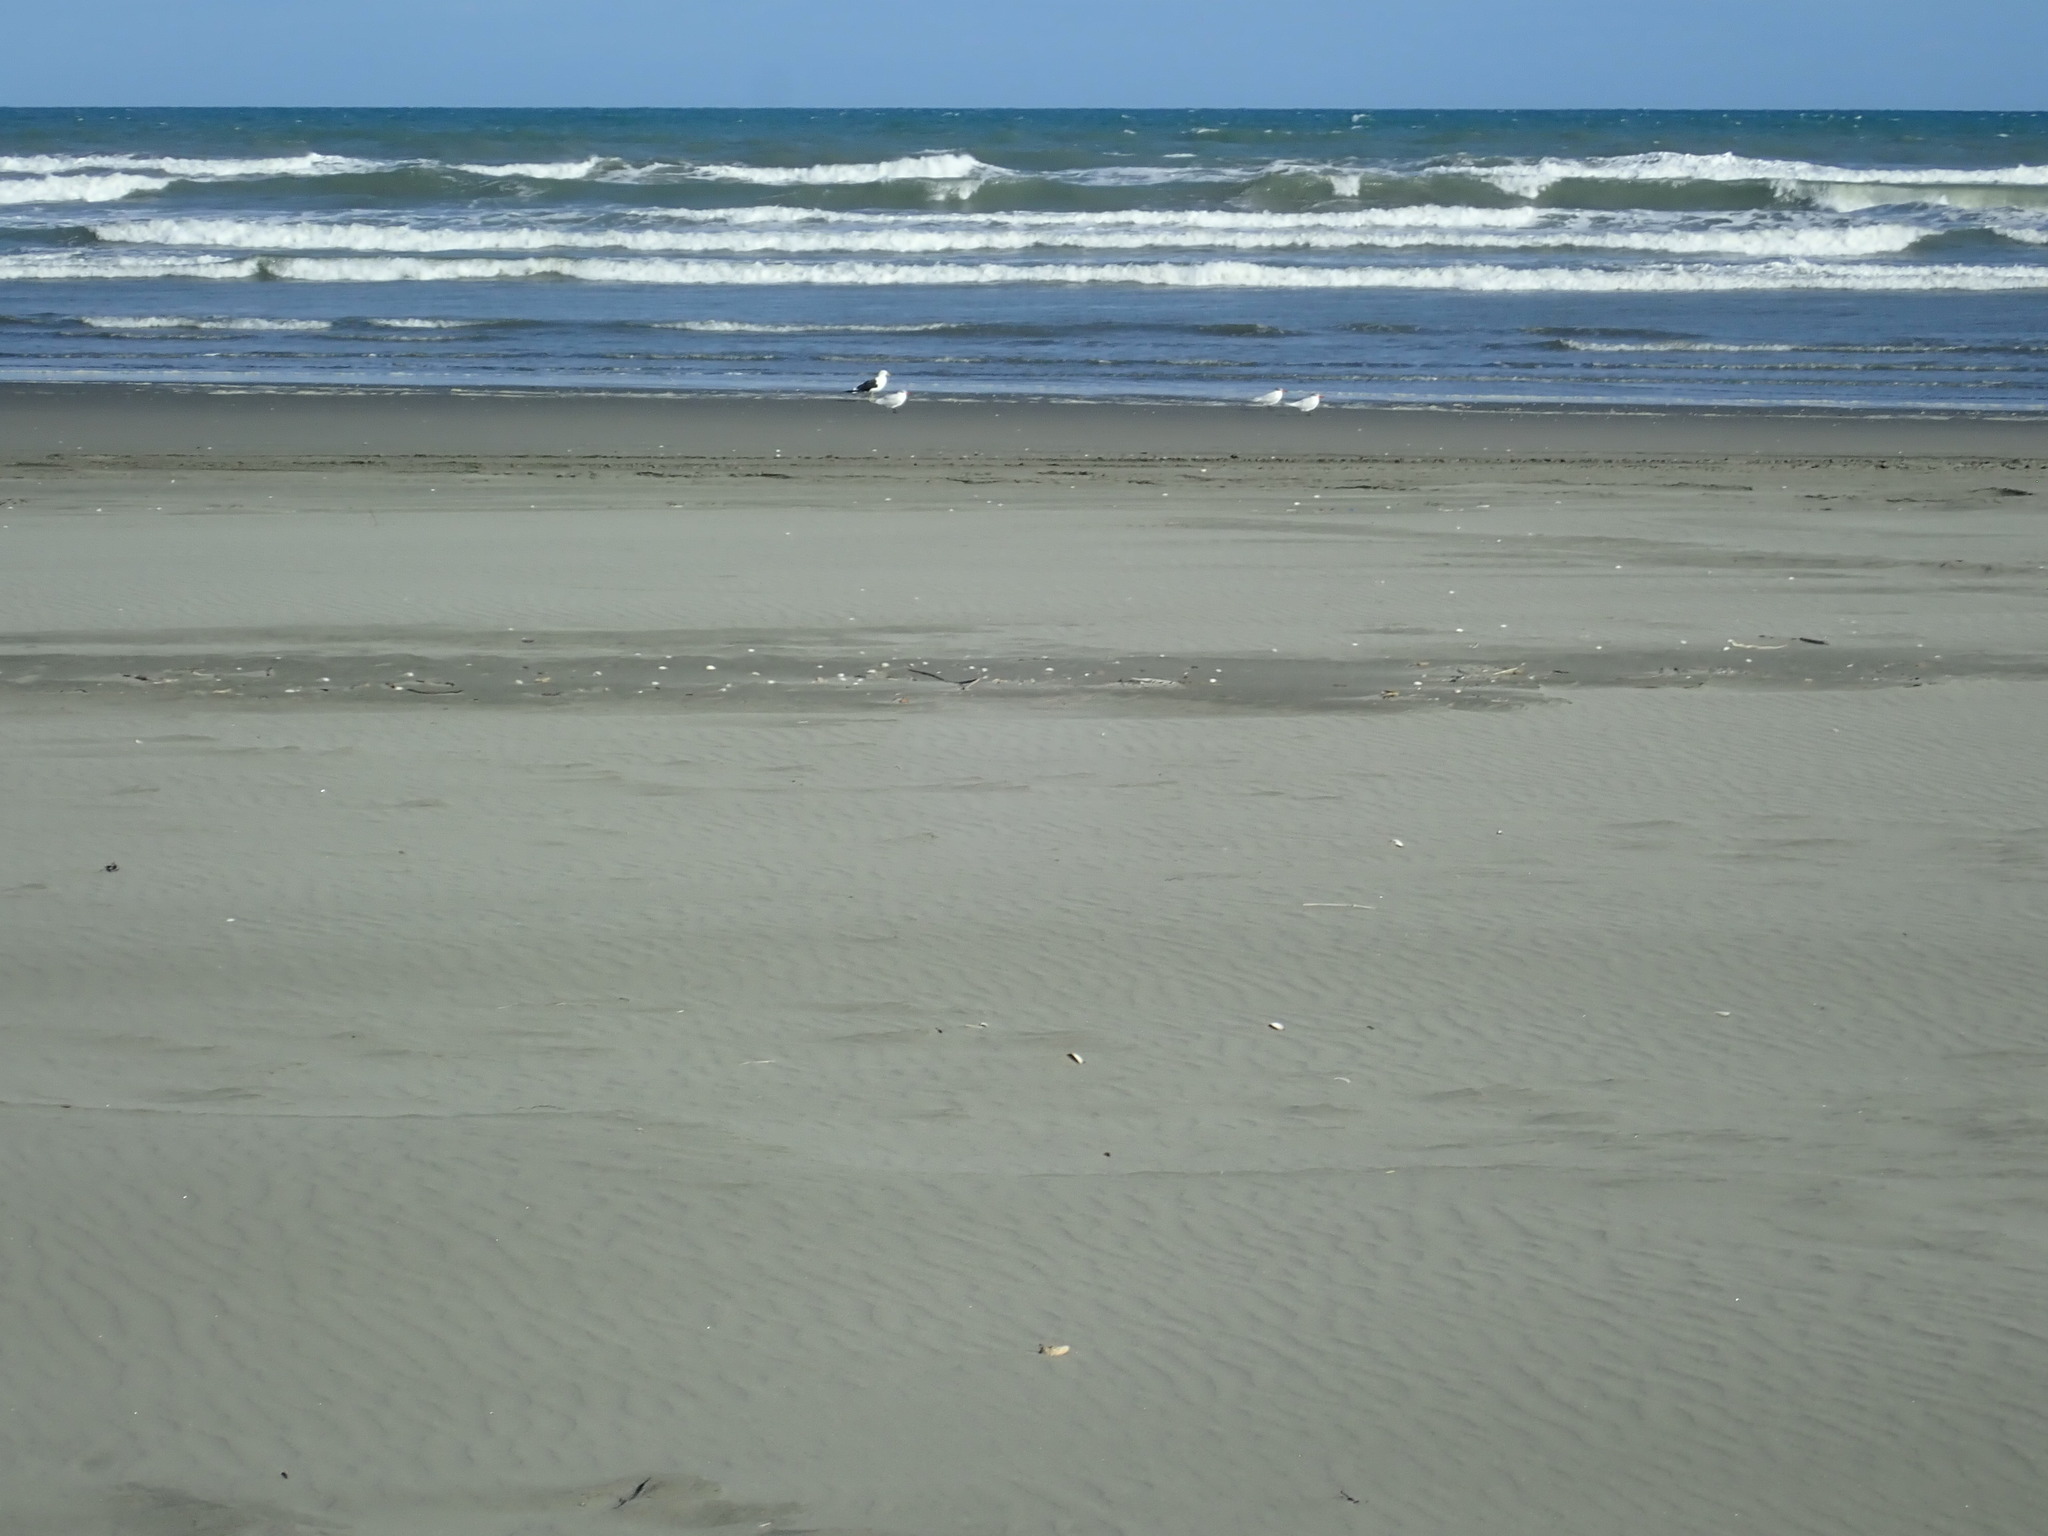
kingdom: Animalia
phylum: Chordata
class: Aves
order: Charadriiformes
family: Laridae
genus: Hydroprogne
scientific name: Hydroprogne caspia
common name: Caspian tern
